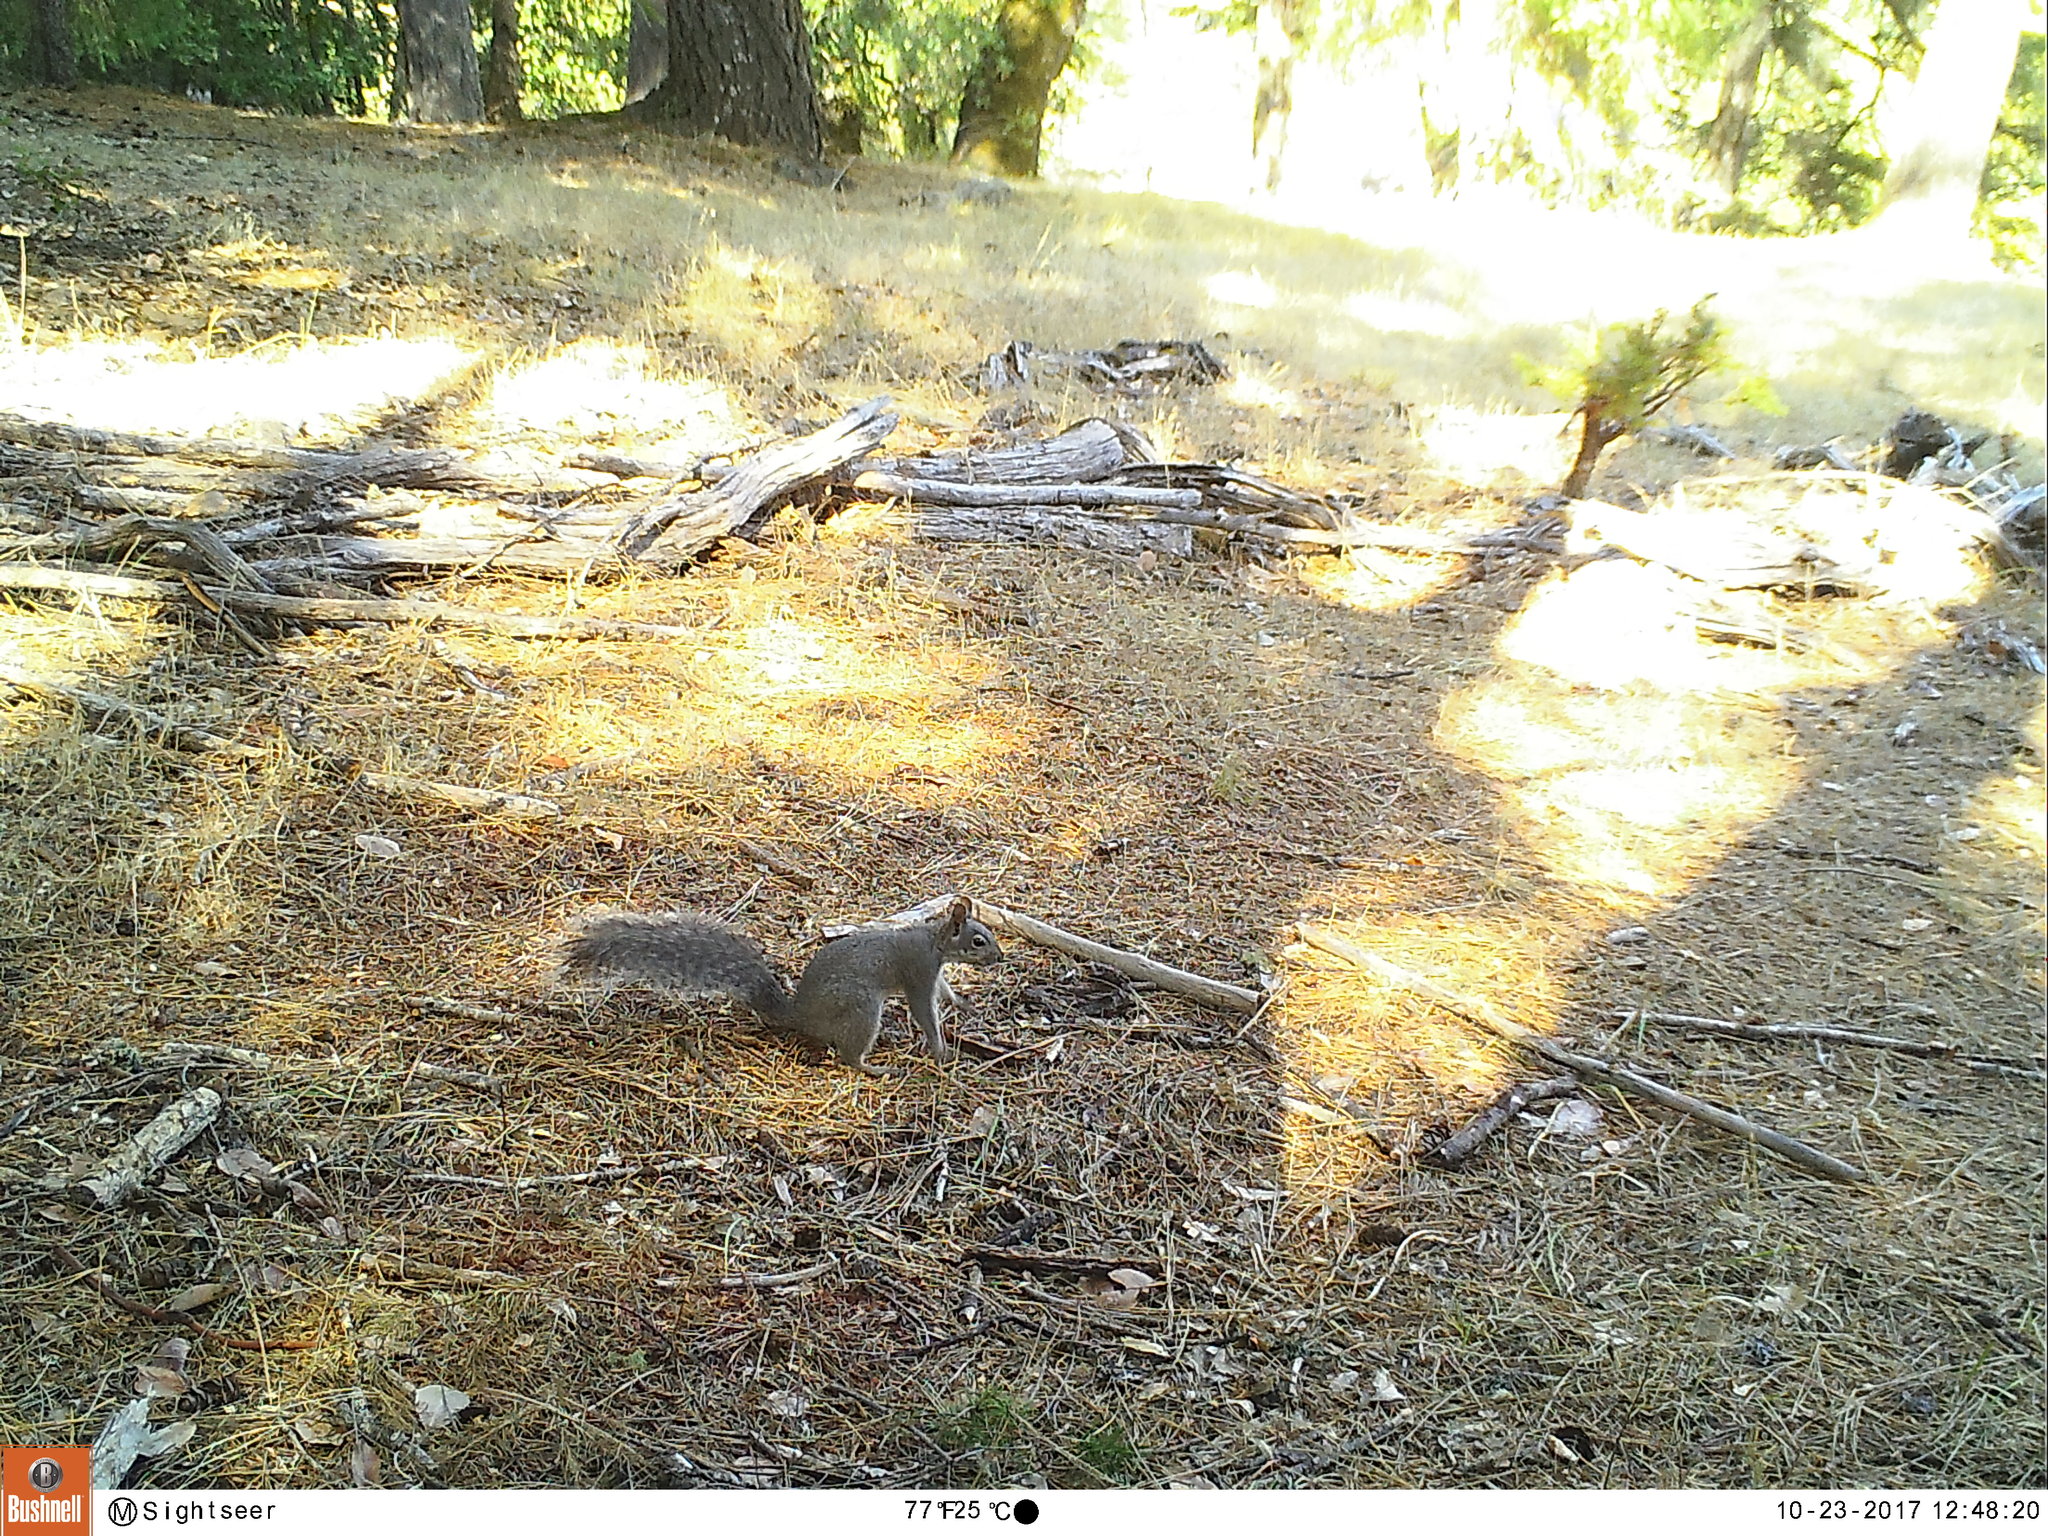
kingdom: Animalia
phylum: Chordata
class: Mammalia
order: Rodentia
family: Sciuridae
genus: Sciurus
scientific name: Sciurus griseus
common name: Western gray squirrel
